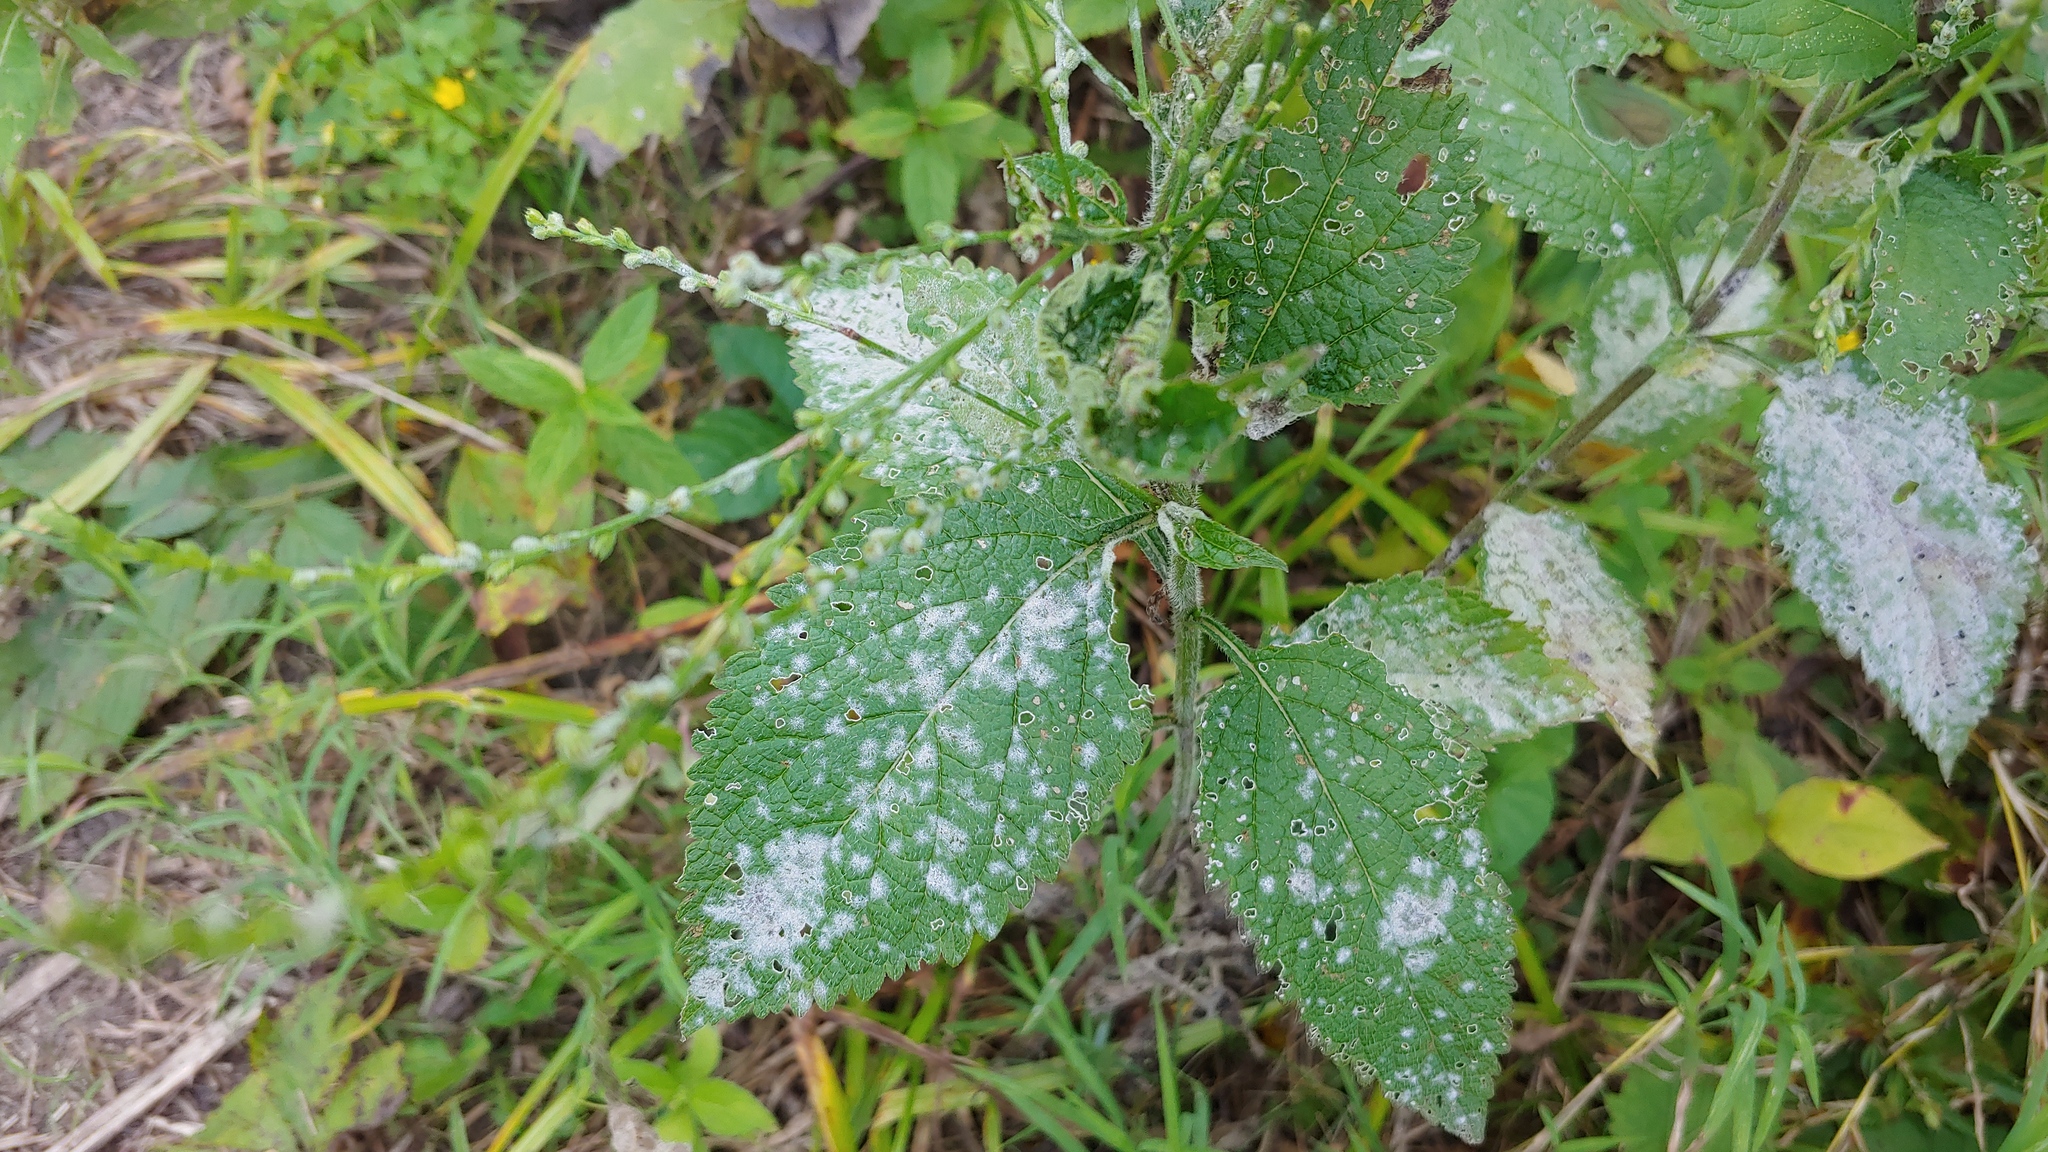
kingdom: Fungi
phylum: Ascomycota
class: Leotiomycetes
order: Helotiales
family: Erysiphaceae
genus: Golovinomyces
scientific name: Golovinomyces verbenae
